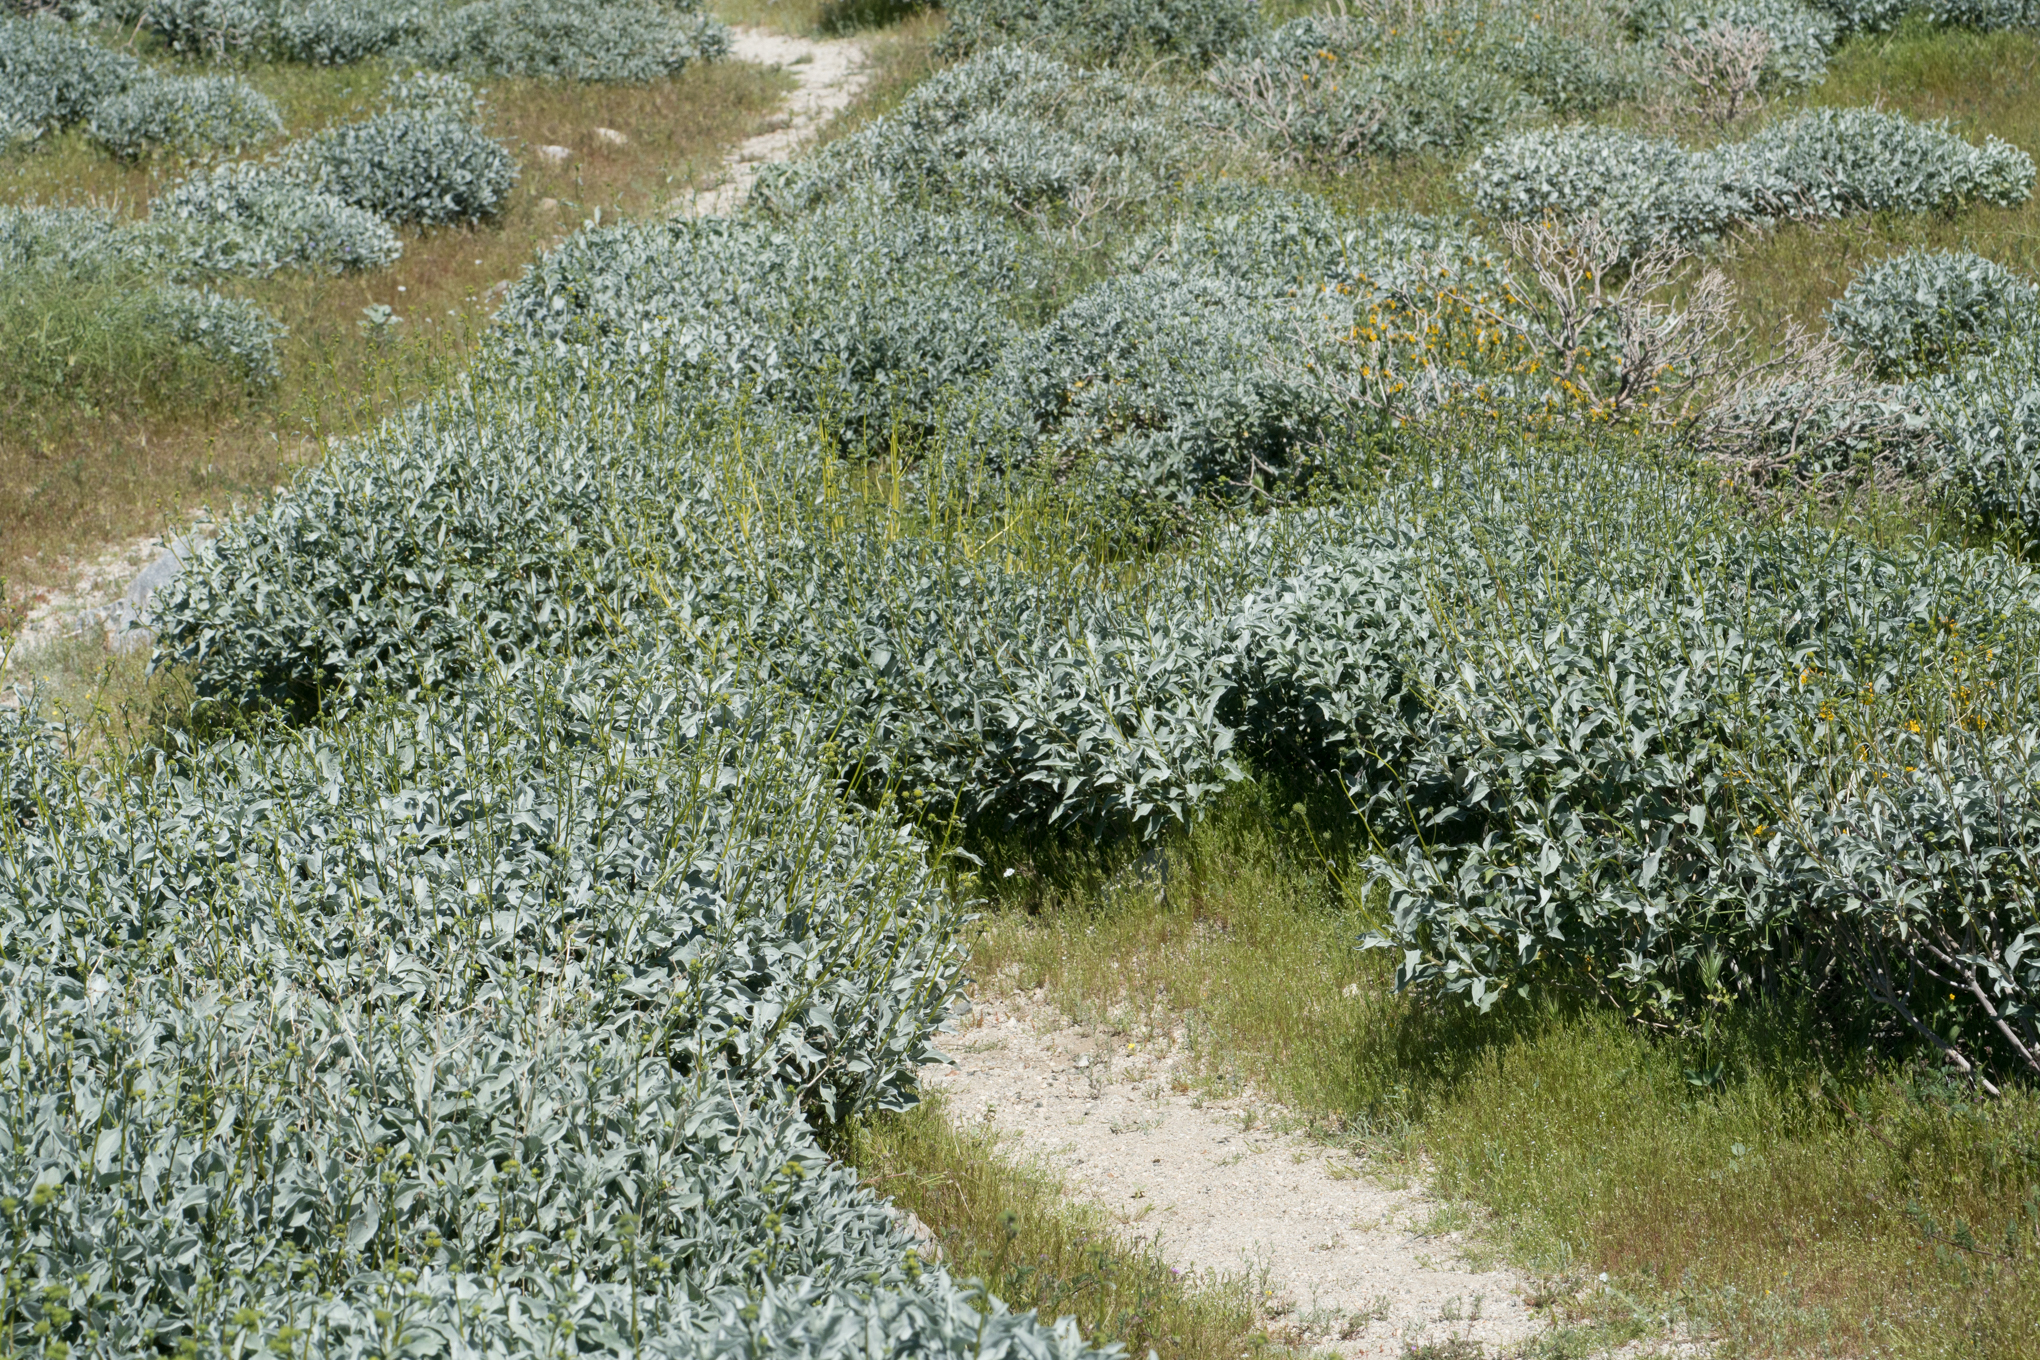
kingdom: Plantae
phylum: Tracheophyta
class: Magnoliopsida
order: Asterales
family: Asteraceae
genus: Encelia
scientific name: Encelia farinosa
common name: Brittlebush
